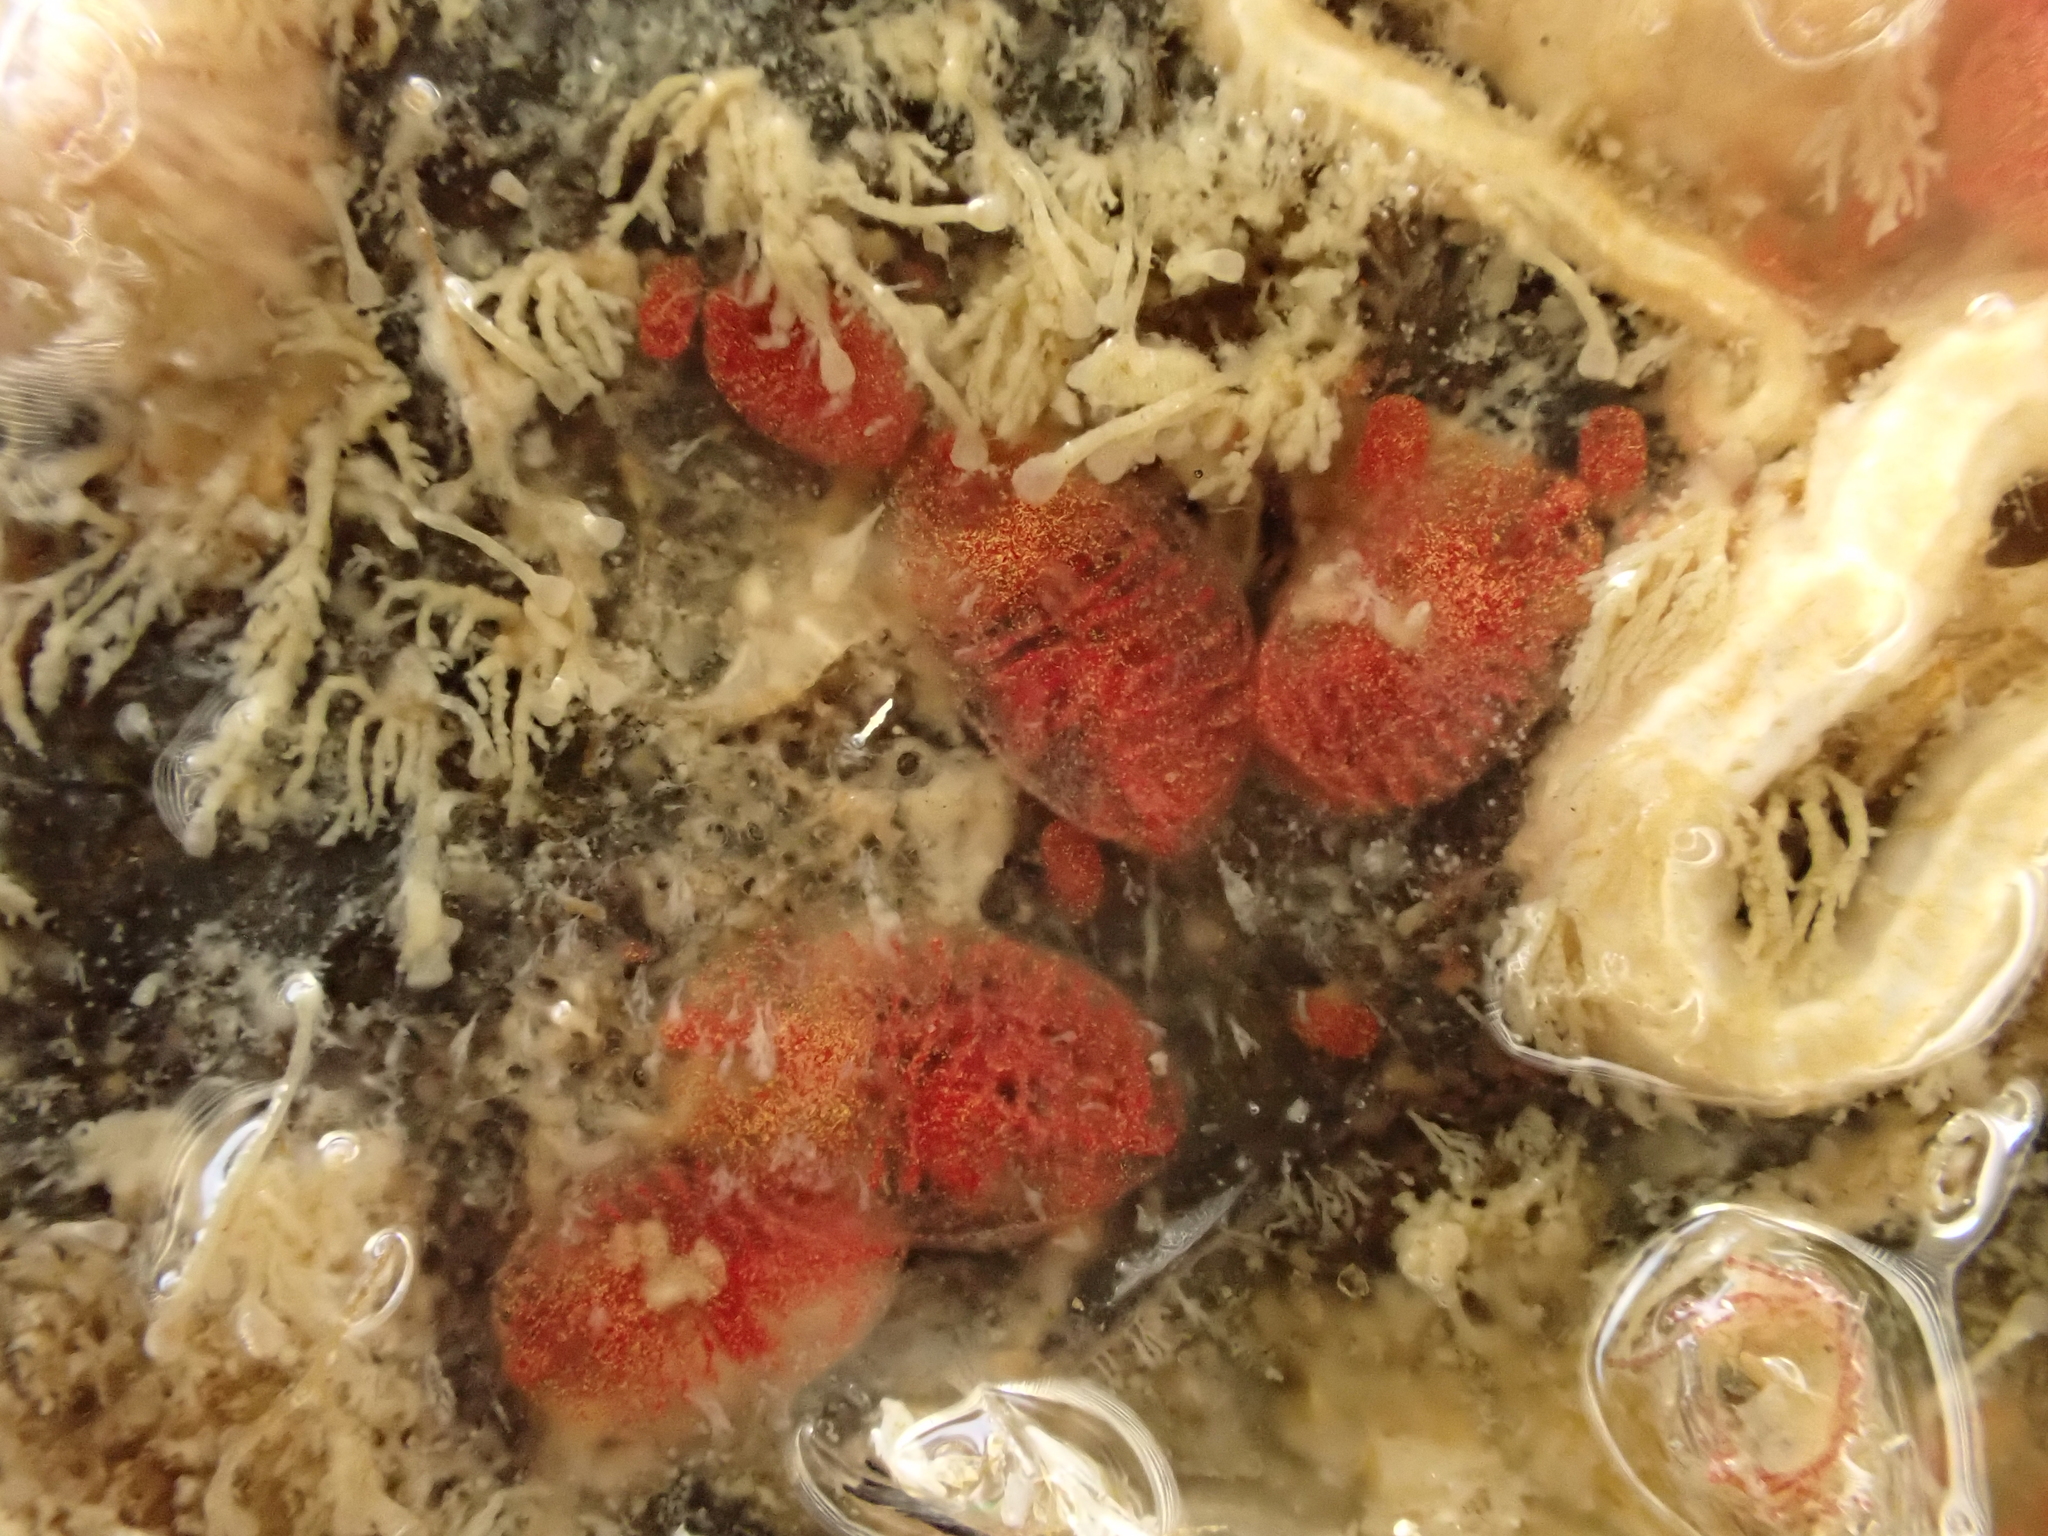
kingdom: Animalia
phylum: Chordata
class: Ascidiacea
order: Stolidobranchia
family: Styelidae
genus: Symplegma
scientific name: Symplegma brakenhielmi
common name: Ascidian
